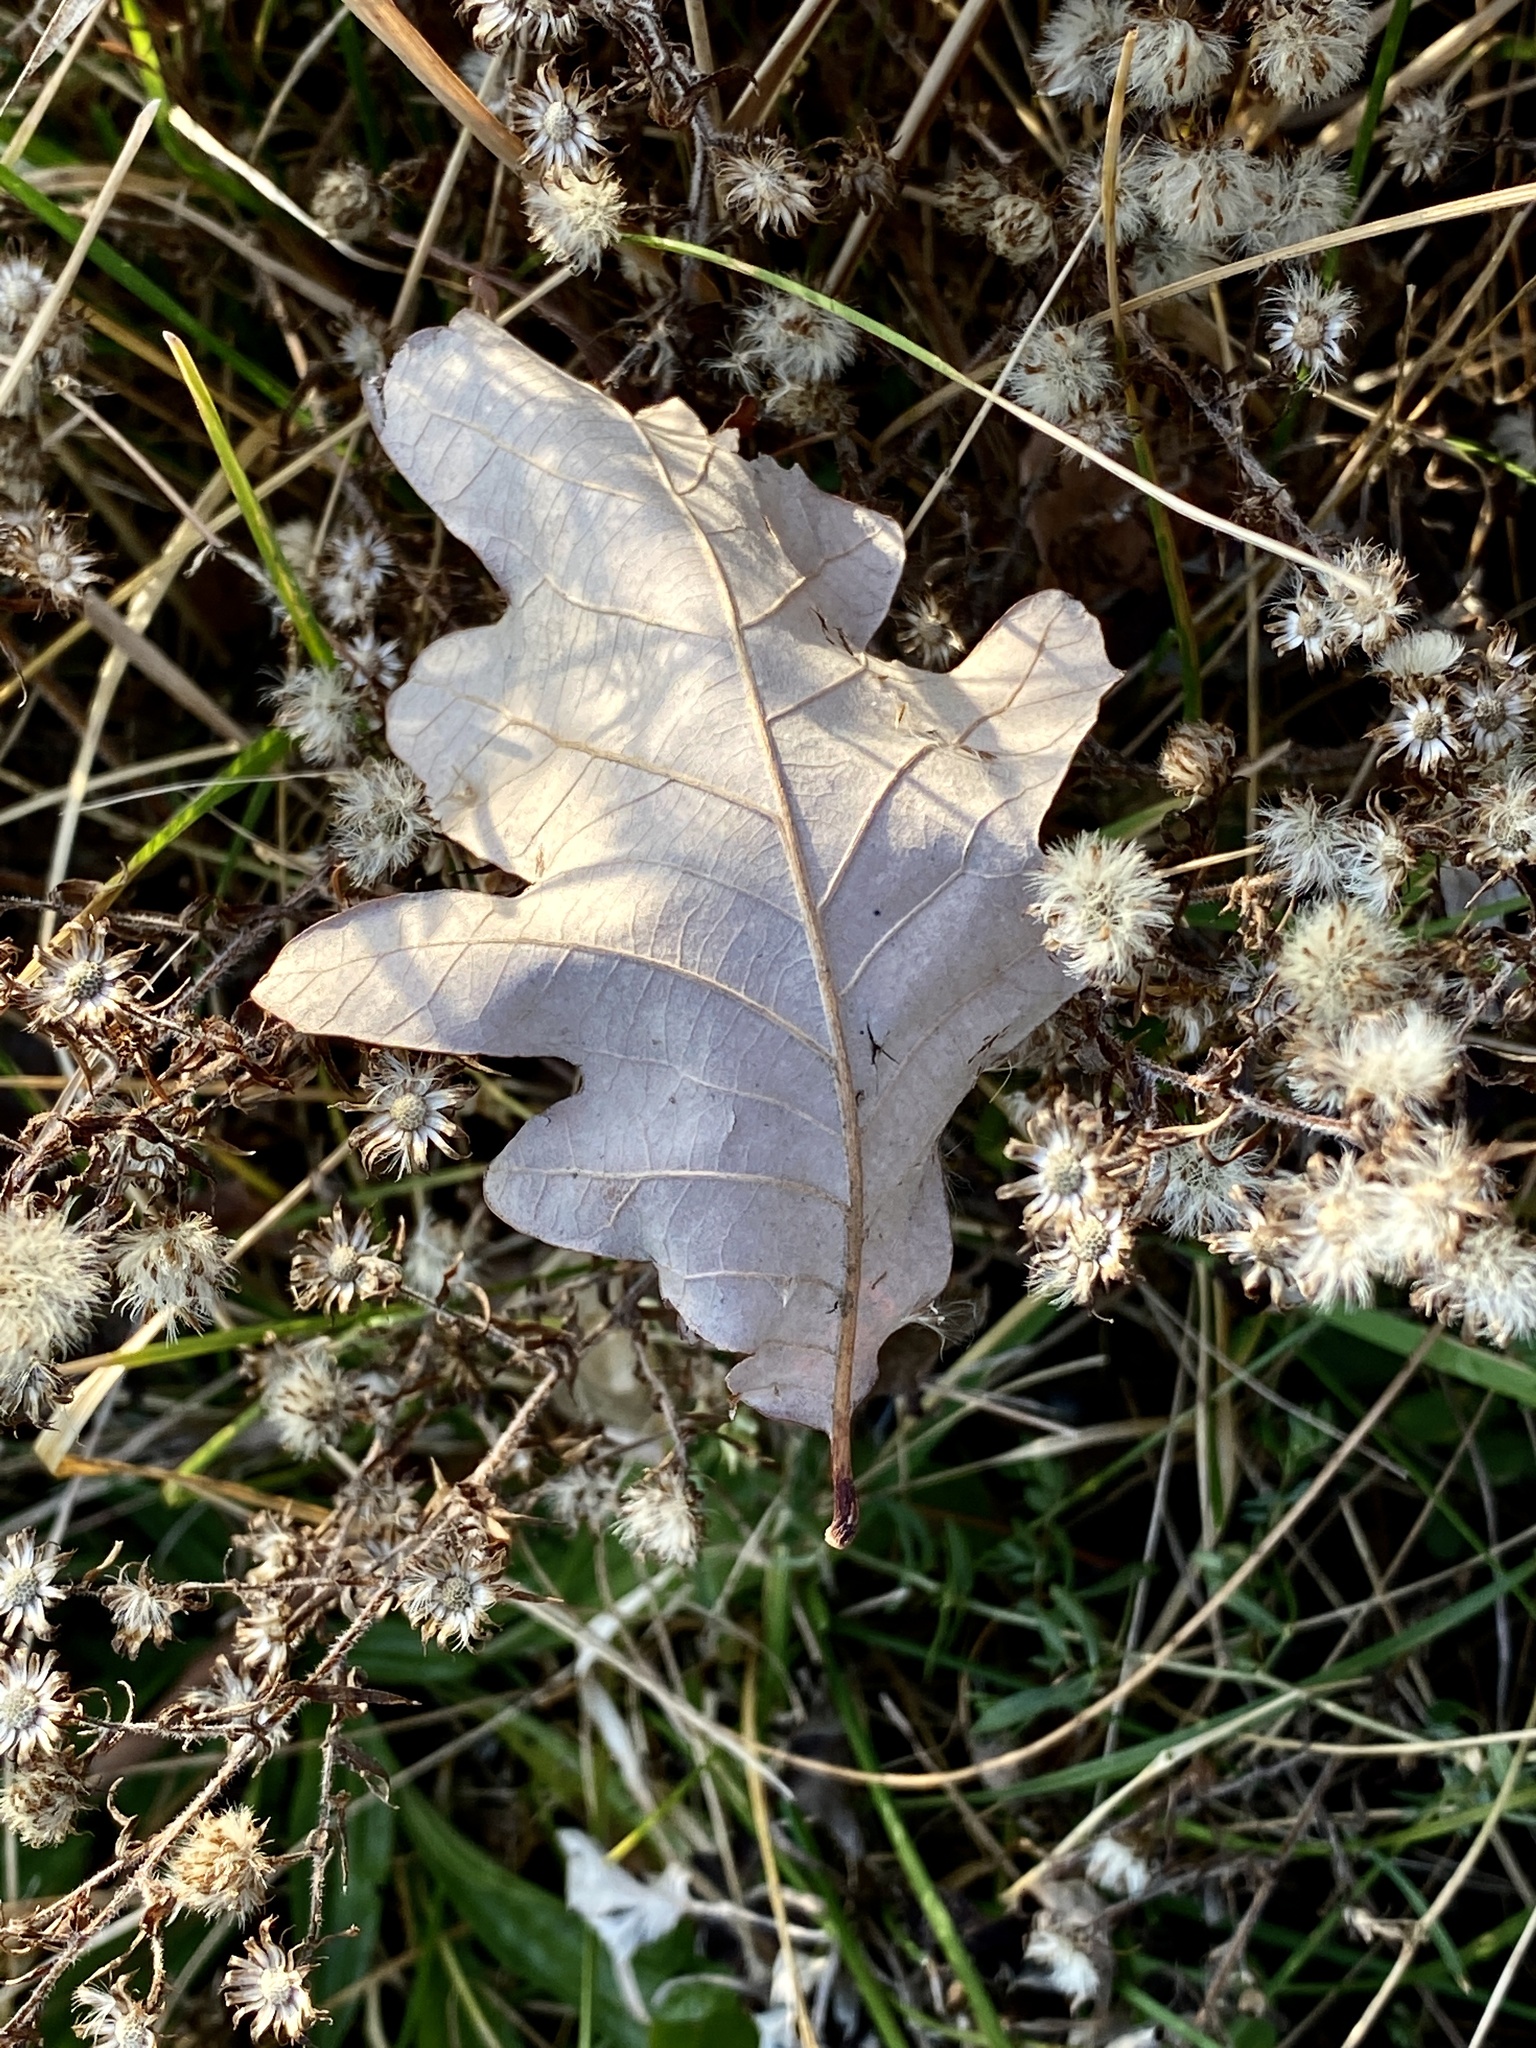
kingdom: Plantae
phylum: Tracheophyta
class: Magnoliopsida
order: Fagales
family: Fagaceae
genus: Quercus
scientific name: Quercus alba
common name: White oak
